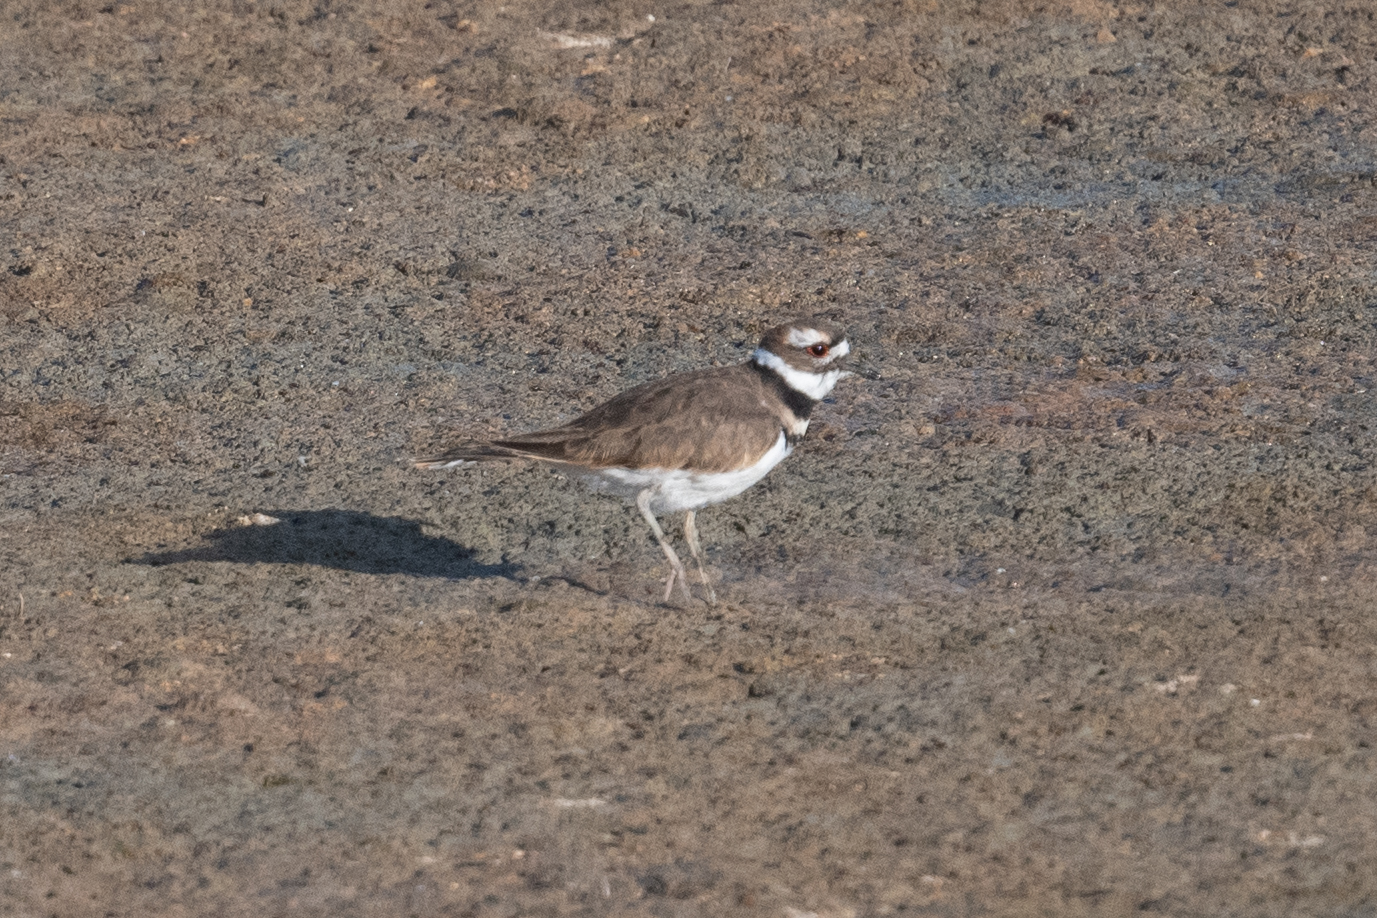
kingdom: Animalia
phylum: Chordata
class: Aves
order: Charadriiformes
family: Charadriidae
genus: Charadrius
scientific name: Charadrius vociferus
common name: Killdeer
